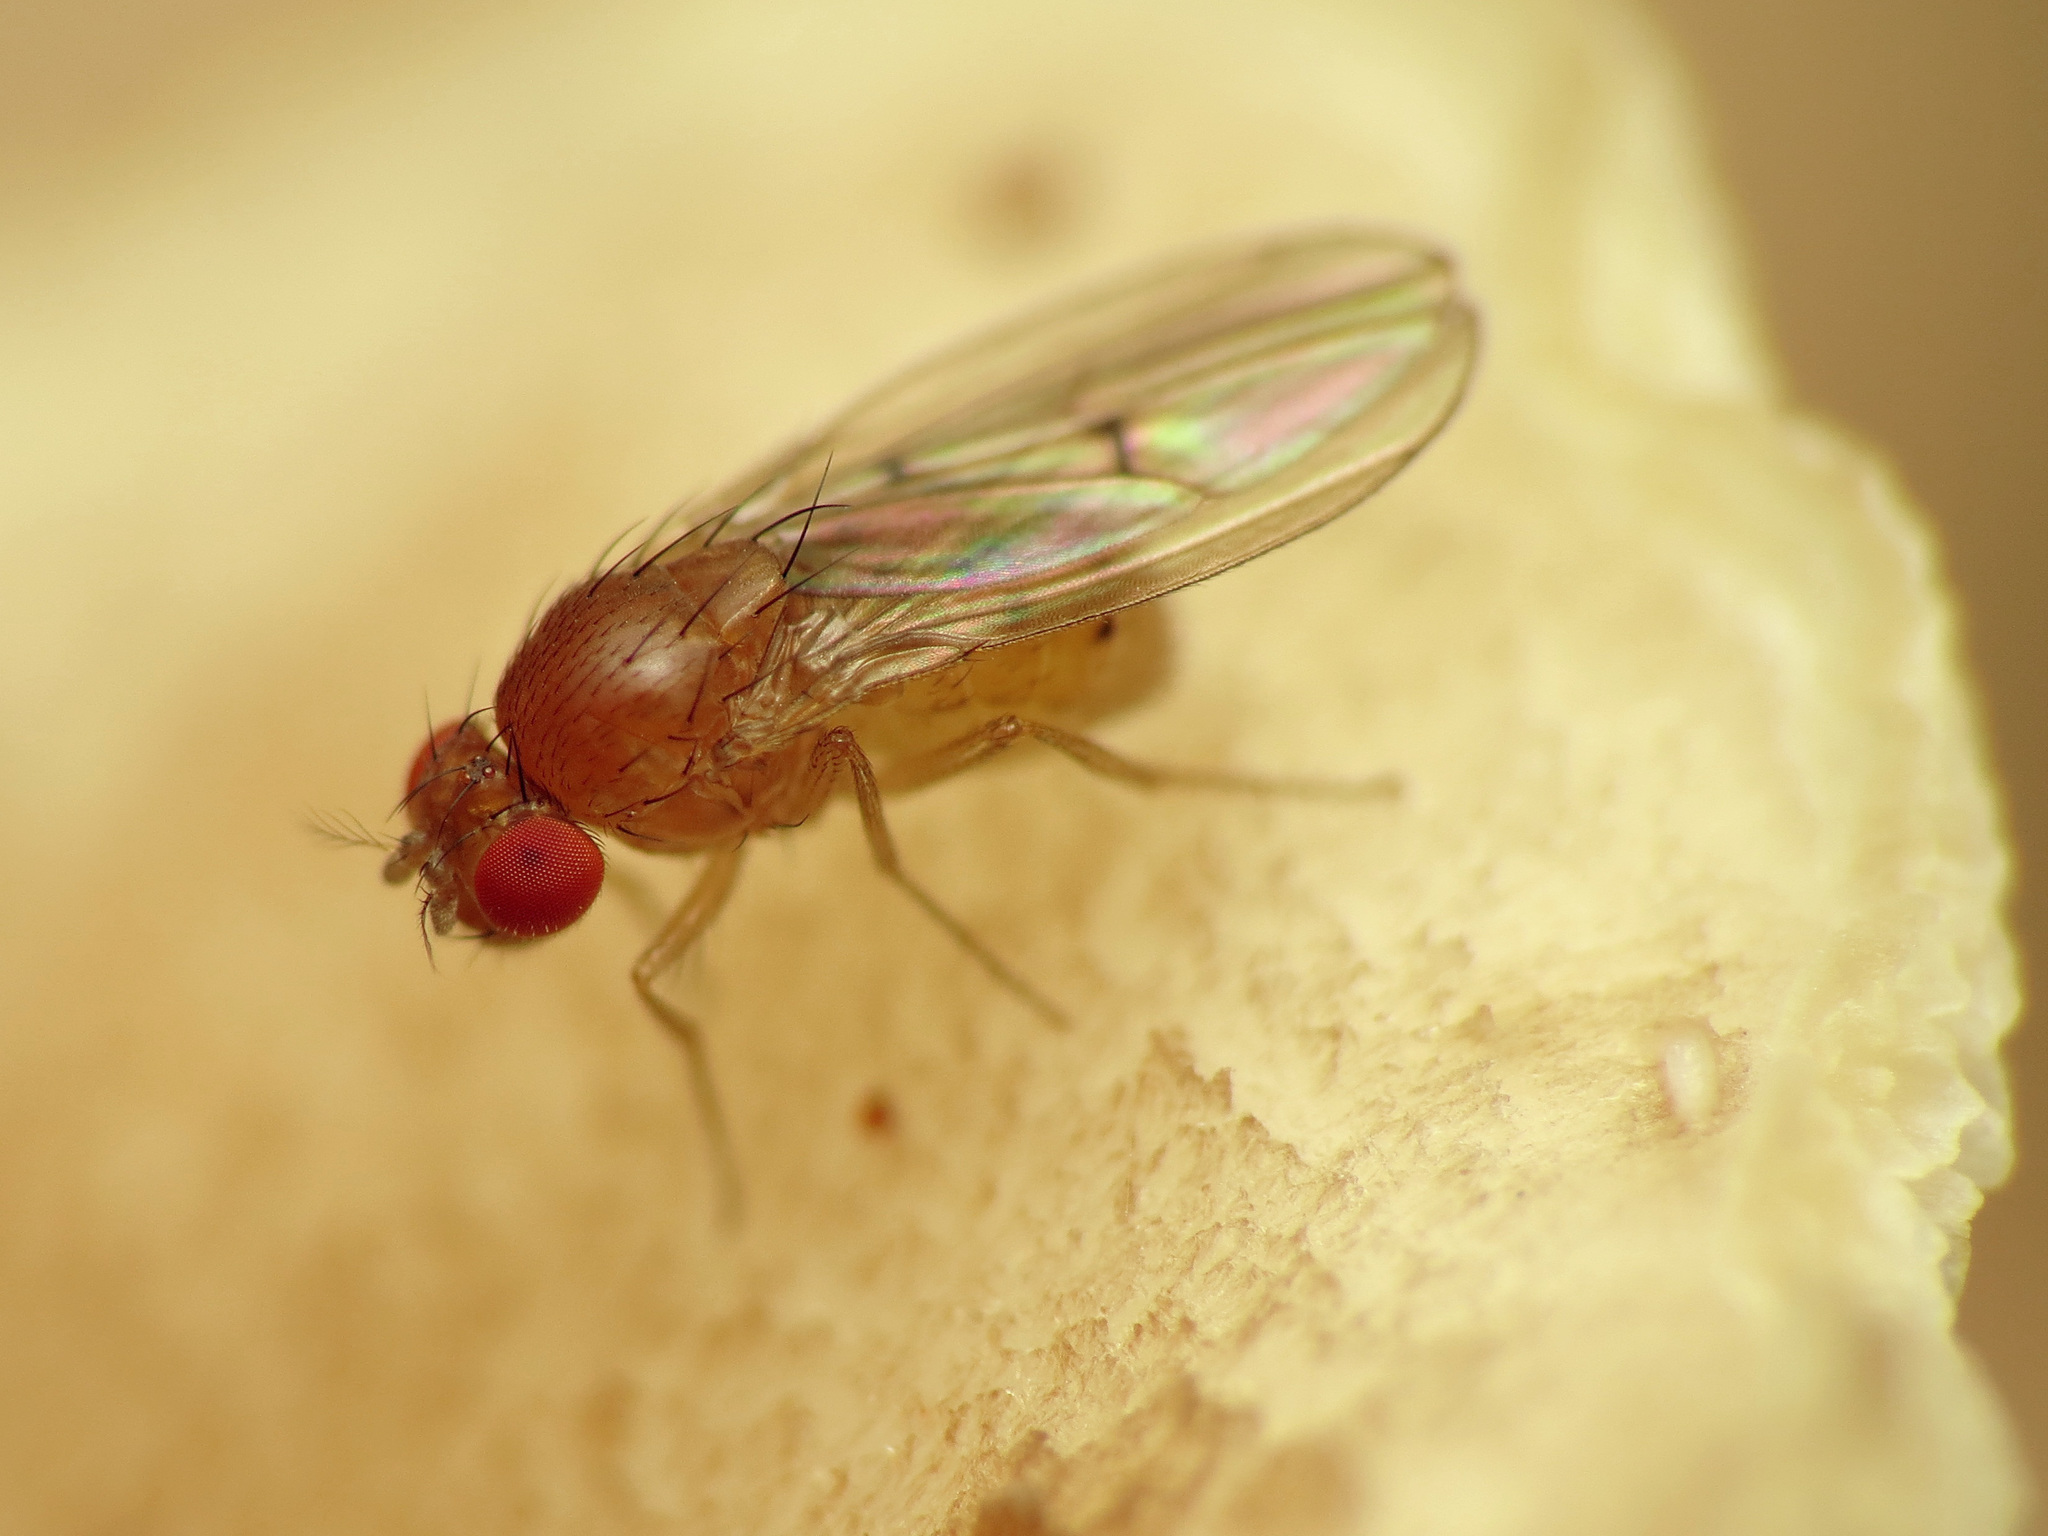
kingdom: Animalia
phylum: Arthropoda
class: Insecta
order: Diptera
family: Drosophilidae
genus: Drosophila
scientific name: Drosophila falleni
